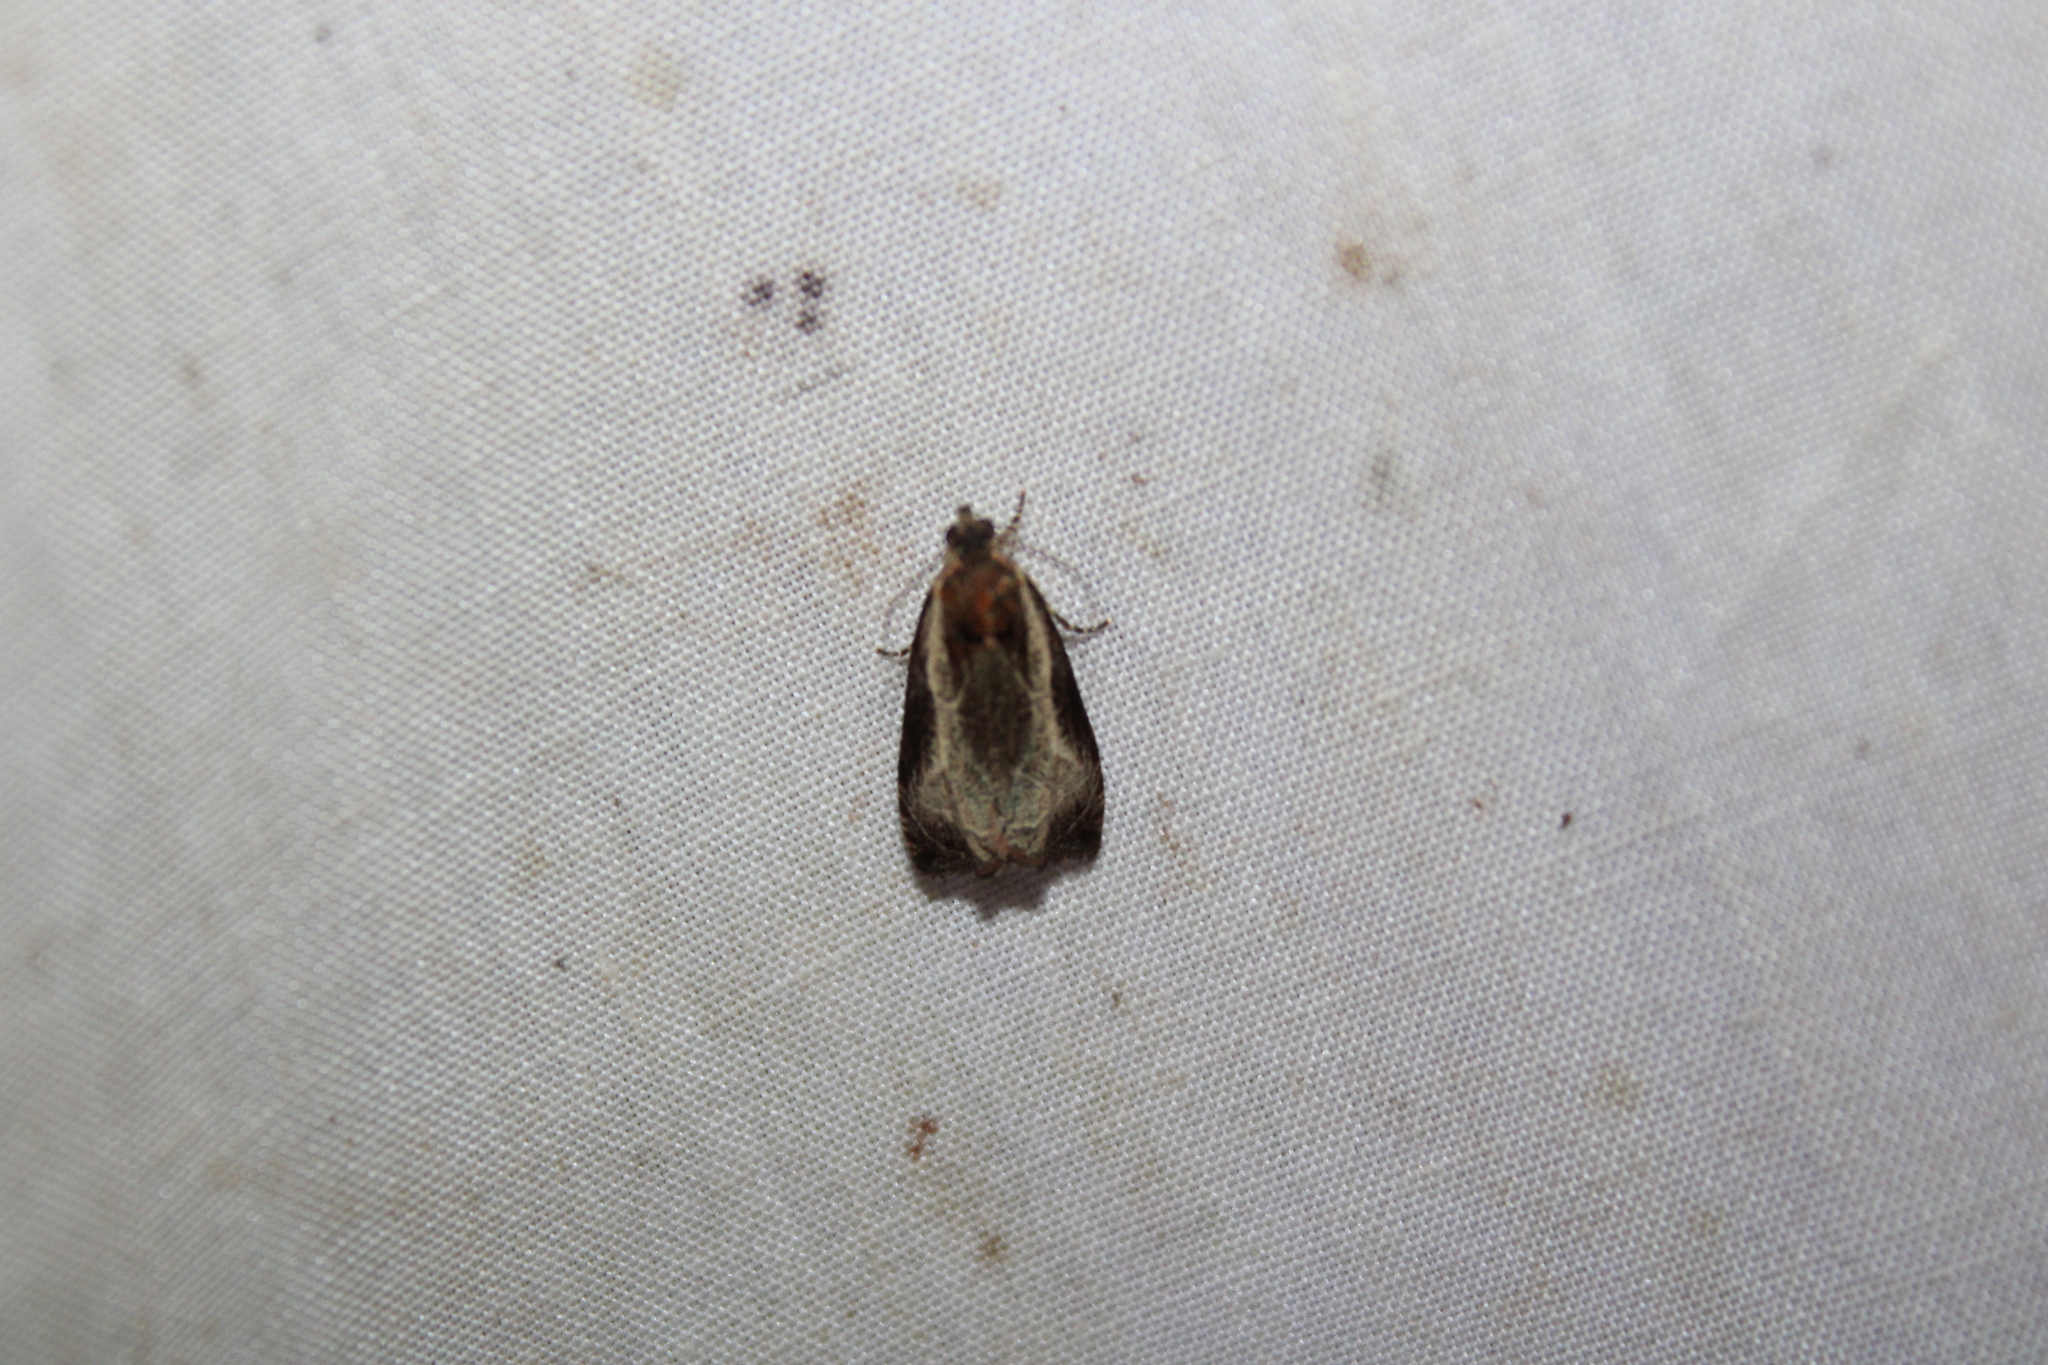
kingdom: Animalia
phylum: Arthropoda
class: Insecta
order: Lepidoptera
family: Tortricidae
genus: Olethreutes
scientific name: Olethreutes inornatana
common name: Inornate olethreutes moth
